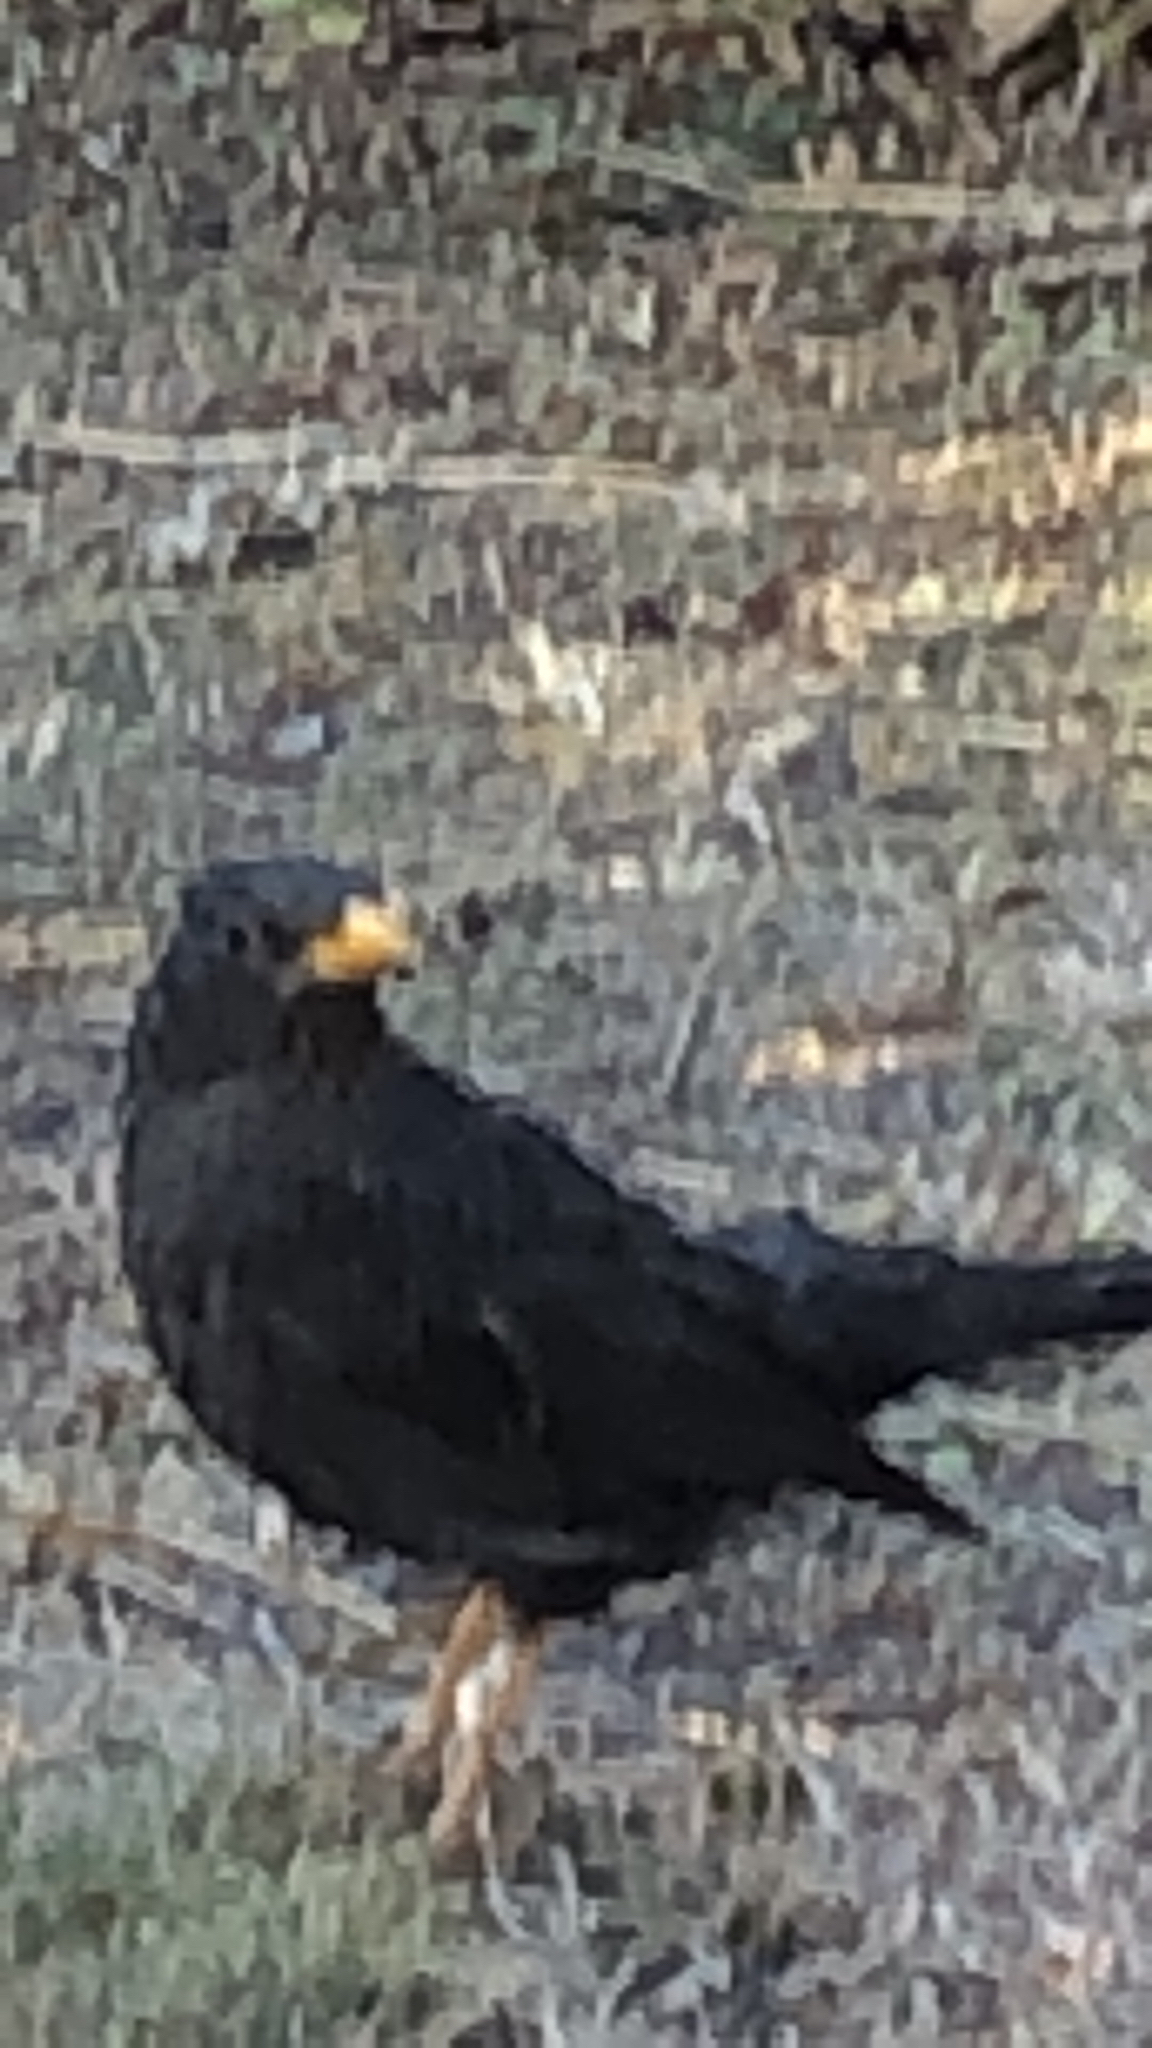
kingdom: Animalia
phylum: Chordata
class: Aves
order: Passeriformes
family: Turdidae
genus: Turdus
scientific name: Turdus chiguanco
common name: Chiguanco thrush
